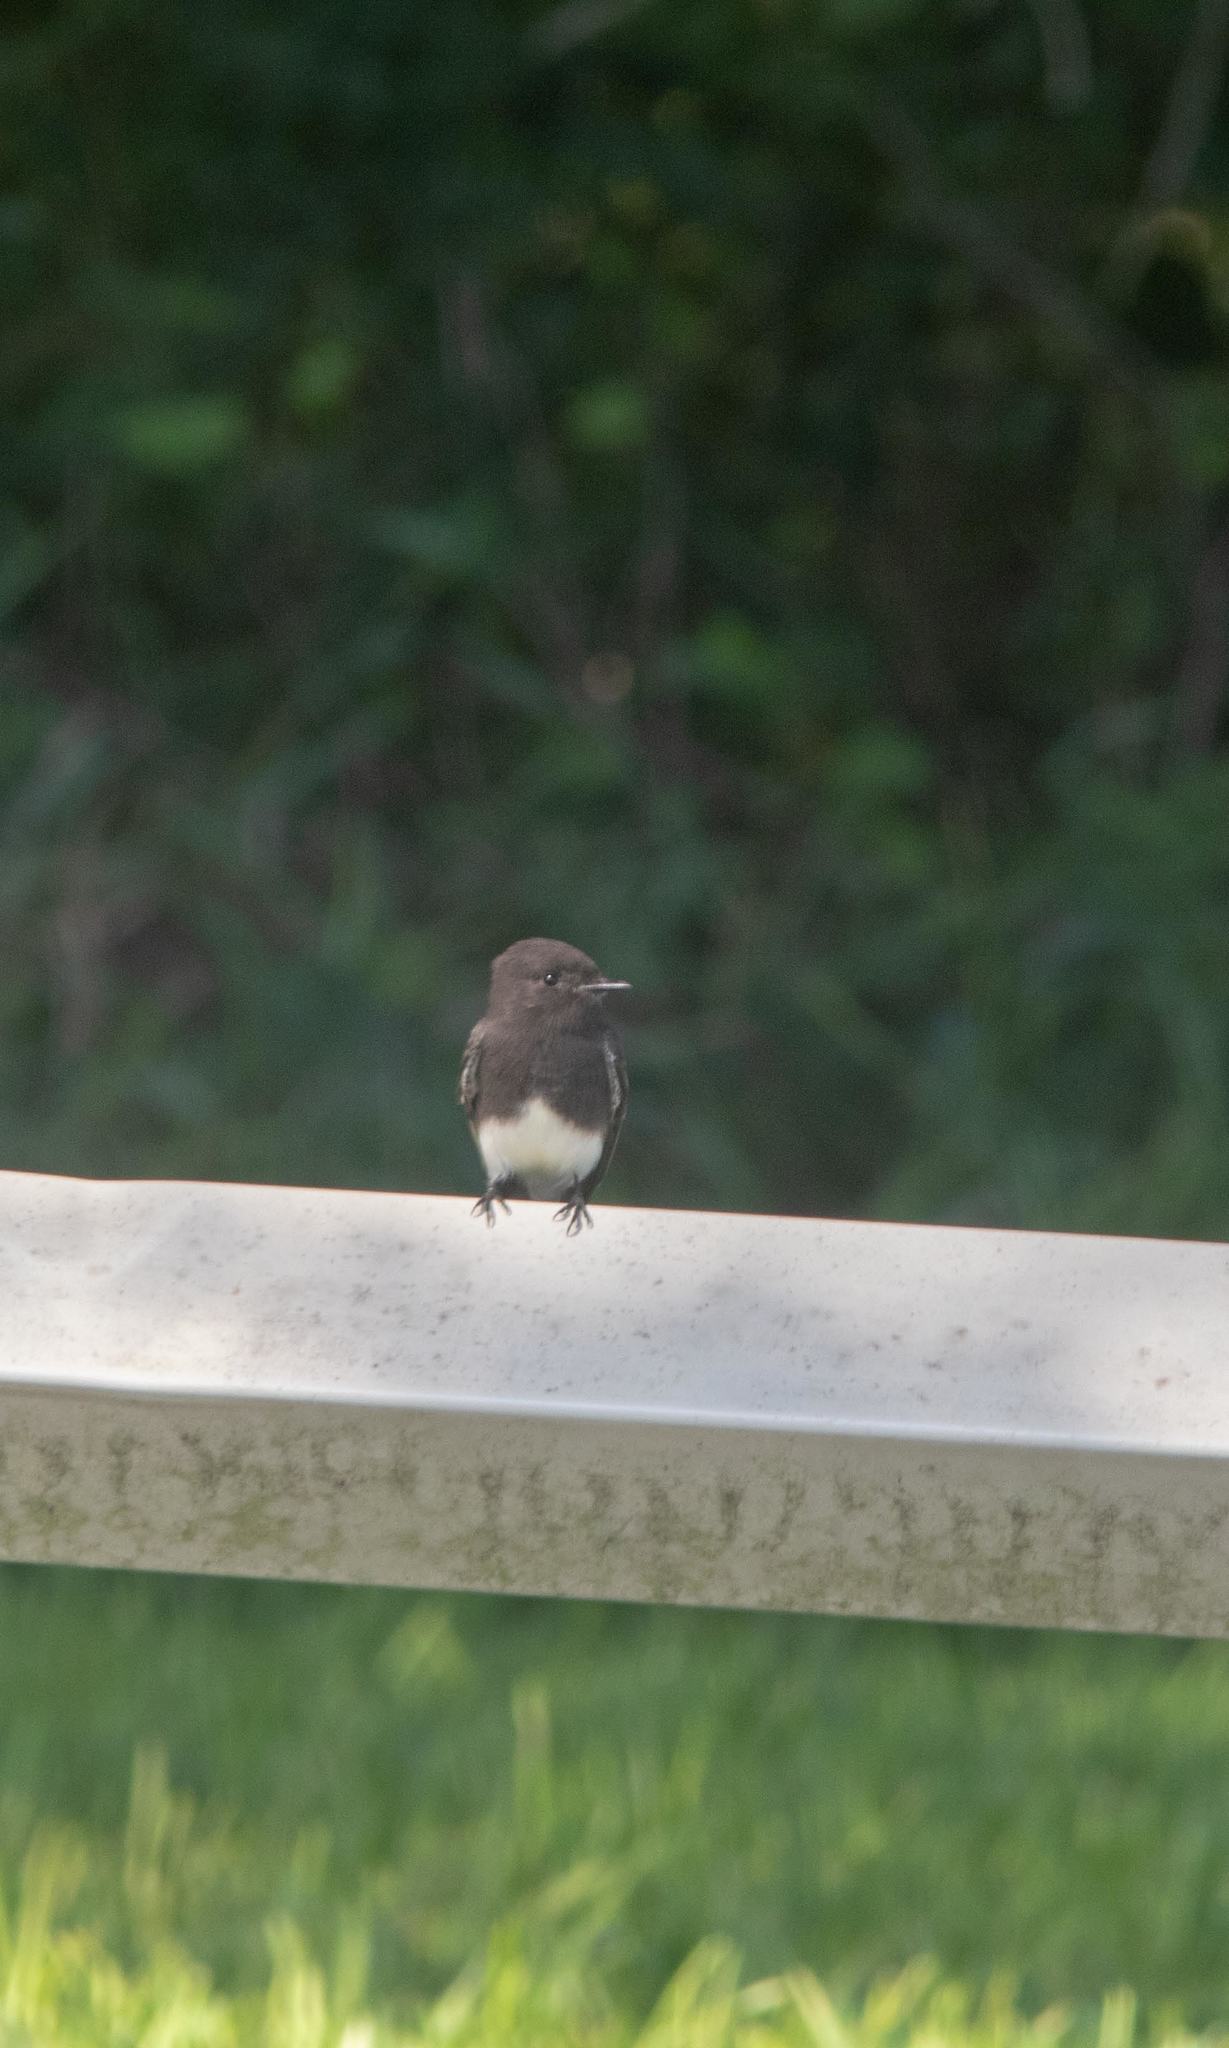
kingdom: Animalia
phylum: Chordata
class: Aves
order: Passeriformes
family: Tyrannidae
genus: Sayornis
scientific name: Sayornis nigricans
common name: Black phoebe
